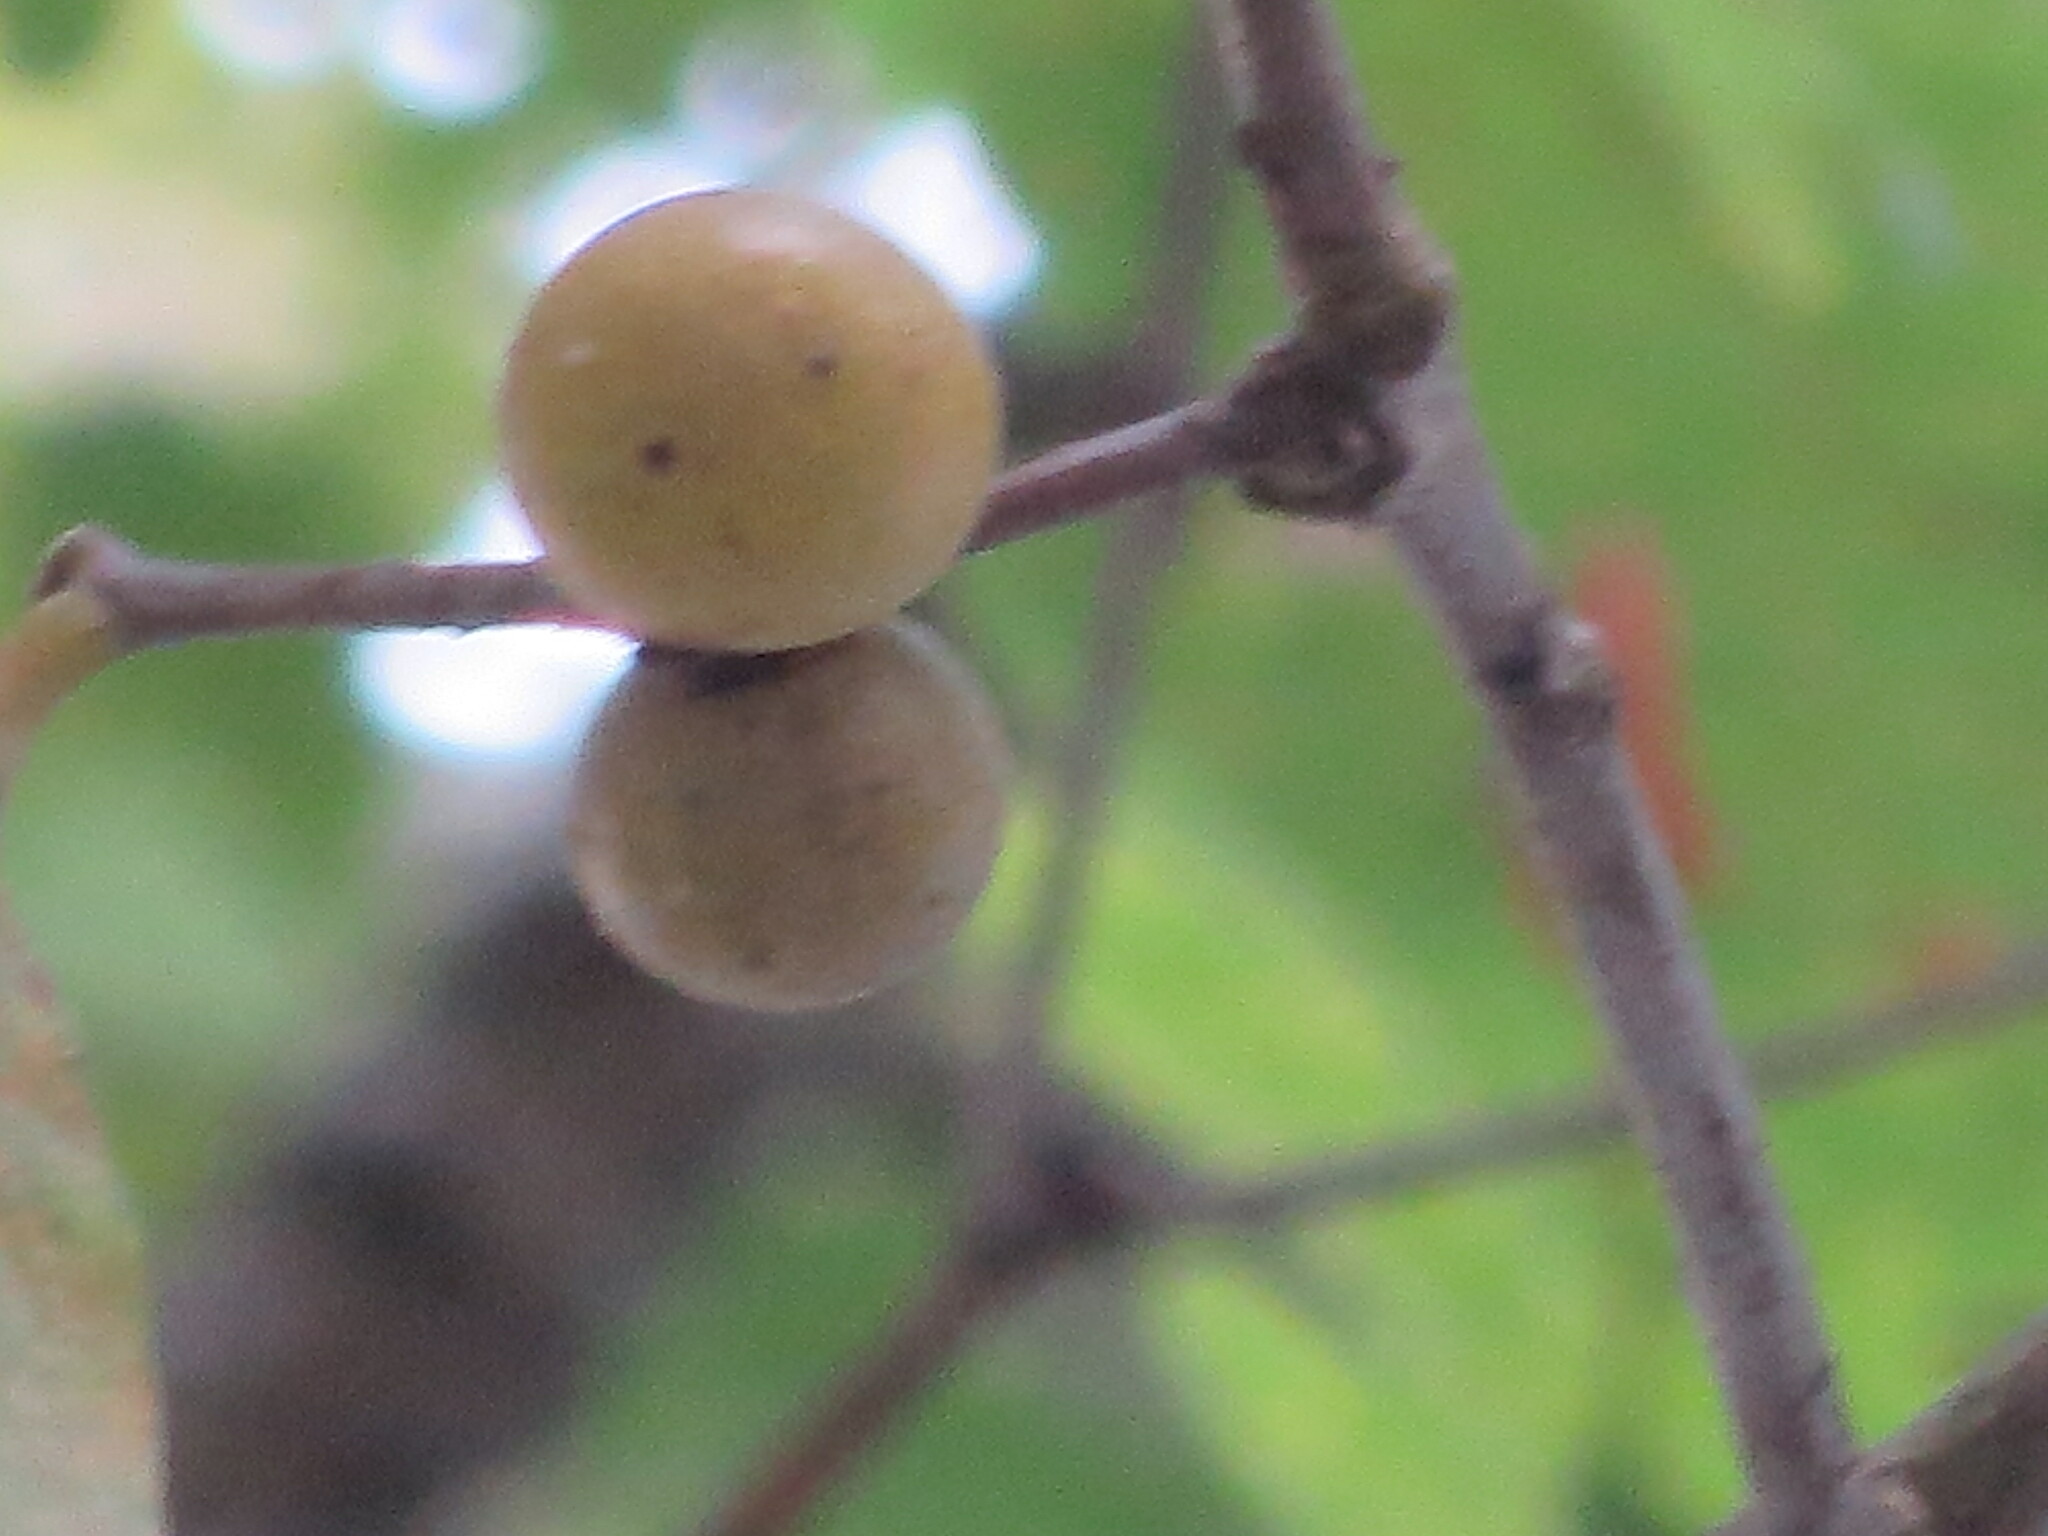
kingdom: Animalia
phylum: Arthropoda
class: Insecta
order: Hymenoptera
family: Cynipidae
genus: Disholcaspis
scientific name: Disholcaspis quercusglobulus
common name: Round bullet gall wasp
